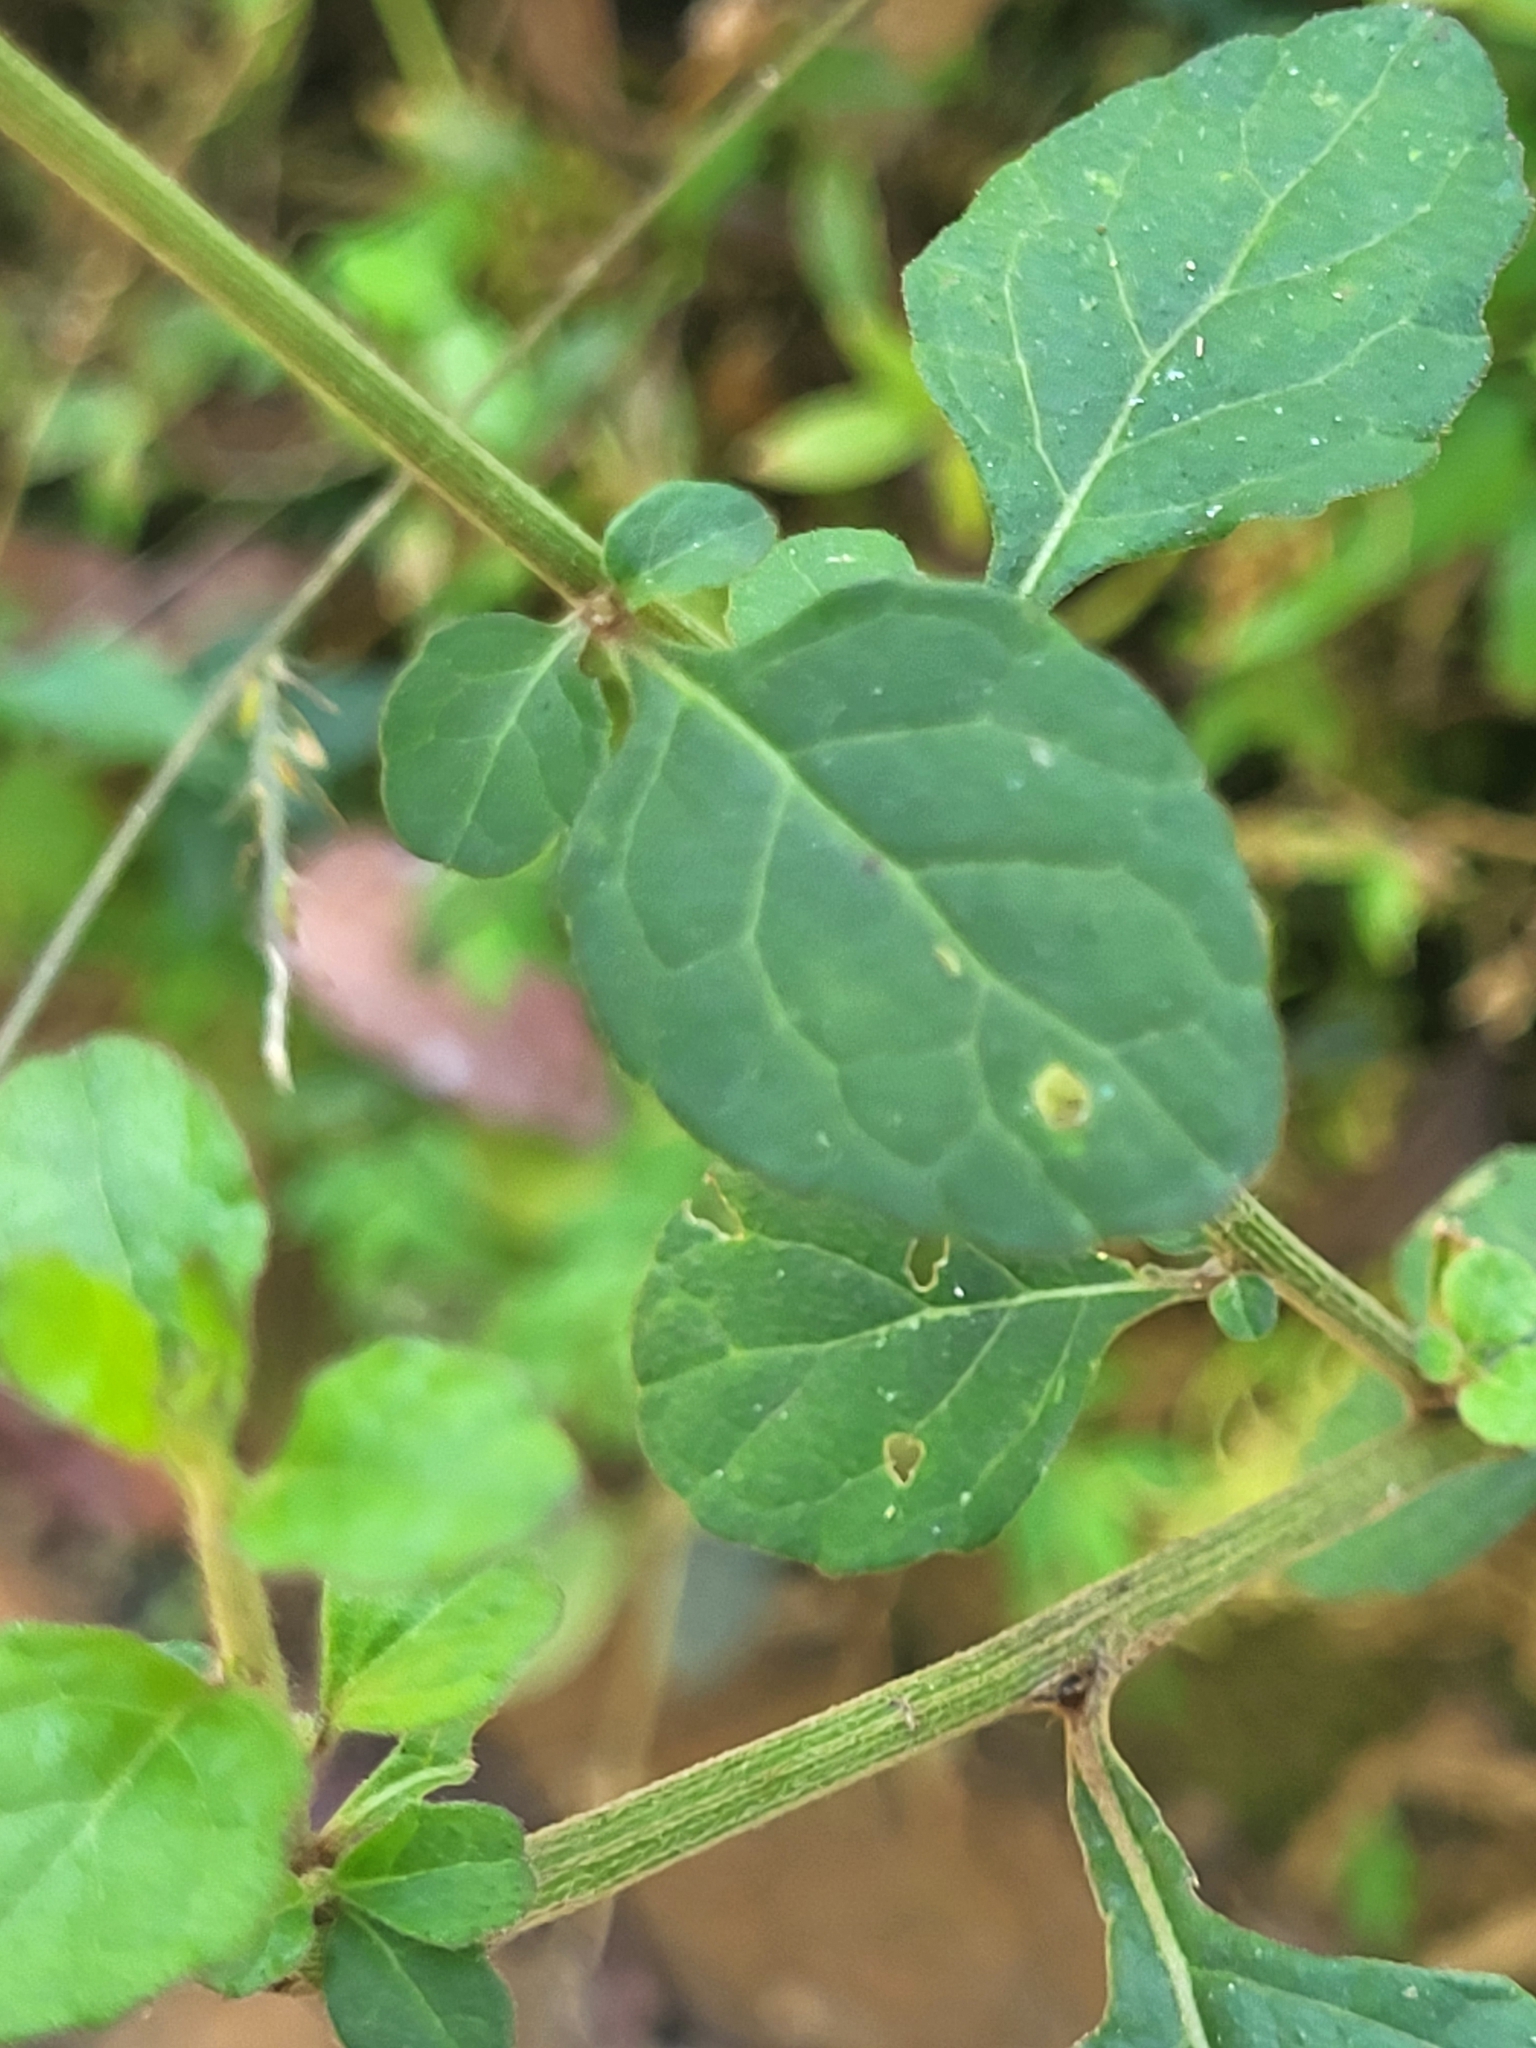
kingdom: Plantae
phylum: Tracheophyta
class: Magnoliopsida
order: Asterales
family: Asteraceae
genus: Cyanthillium
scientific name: Cyanthillium cinereum
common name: Little ironweed
